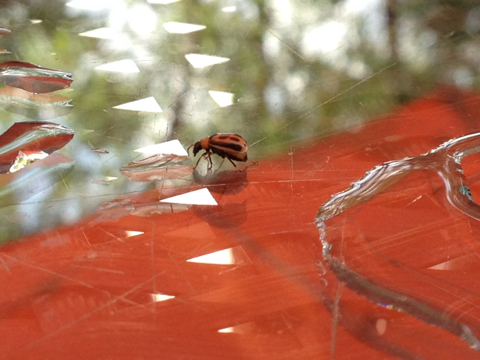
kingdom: Animalia
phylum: Arthropoda
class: Insecta
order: Coleoptera
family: Chrysomelidae
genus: Cerotoma
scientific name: Cerotoma trifurcata
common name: Bean leaf beetle
